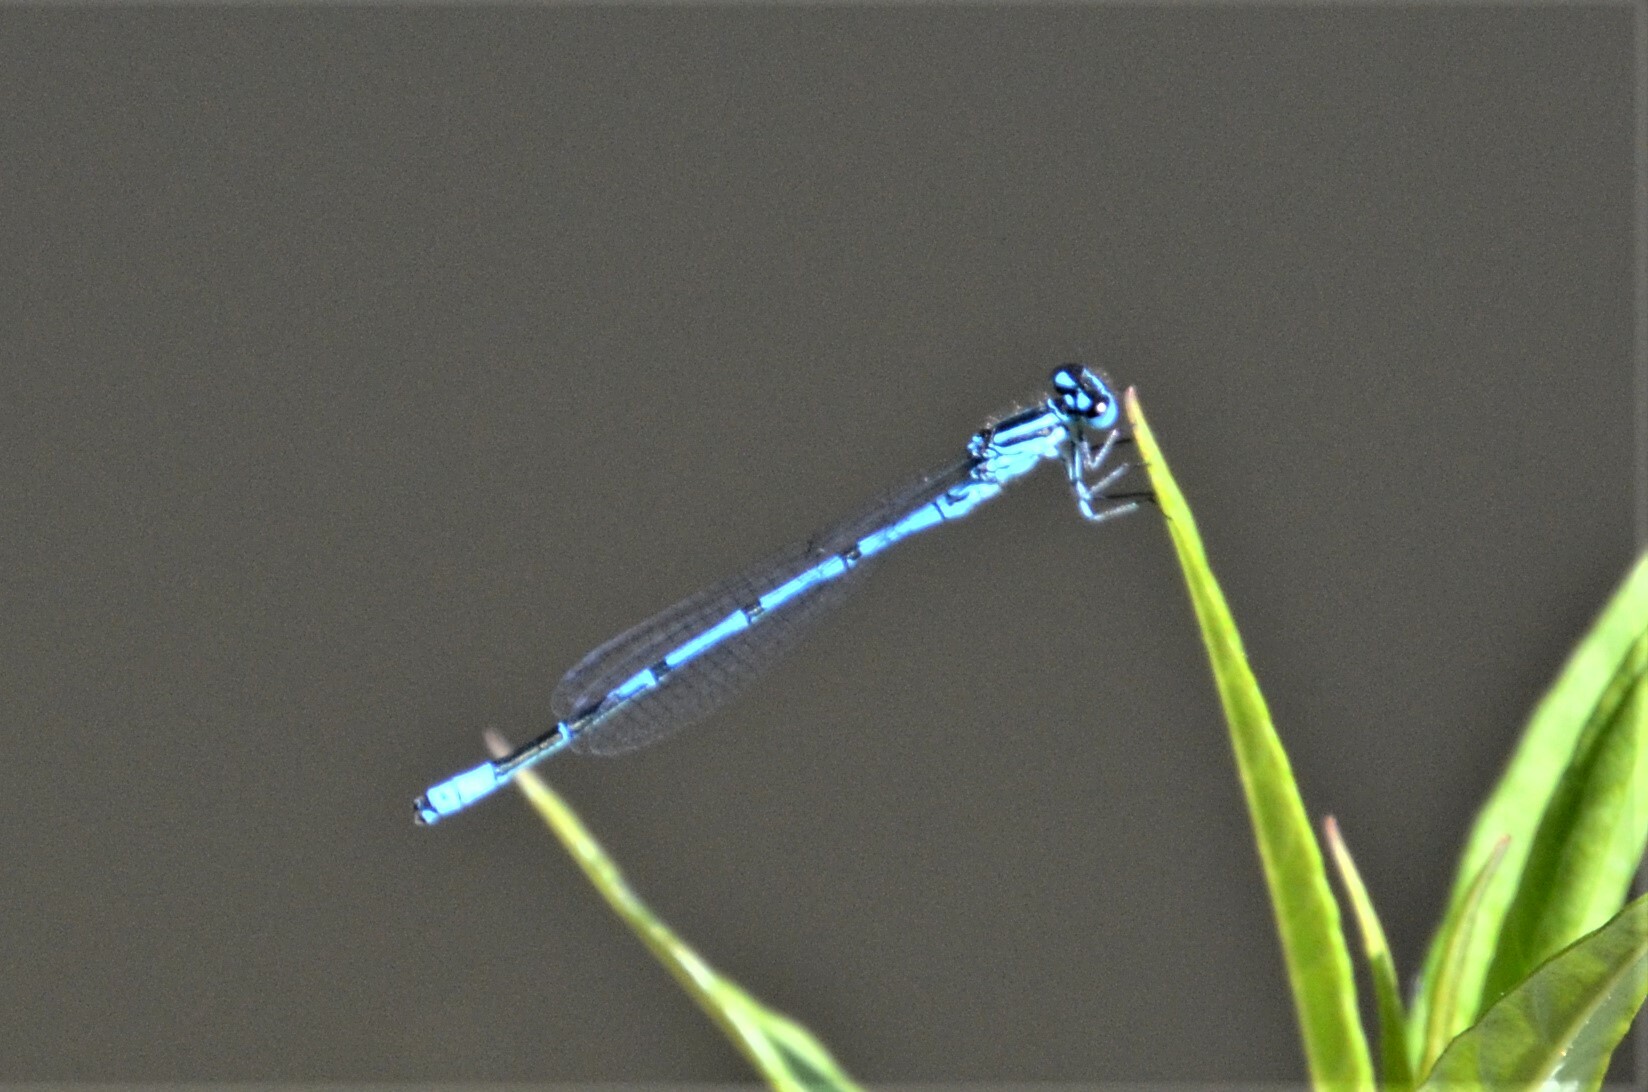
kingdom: Animalia
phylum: Arthropoda
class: Insecta
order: Odonata
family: Coenagrionidae
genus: Coenagrion
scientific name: Coenagrion puella
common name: Azure damselfly
